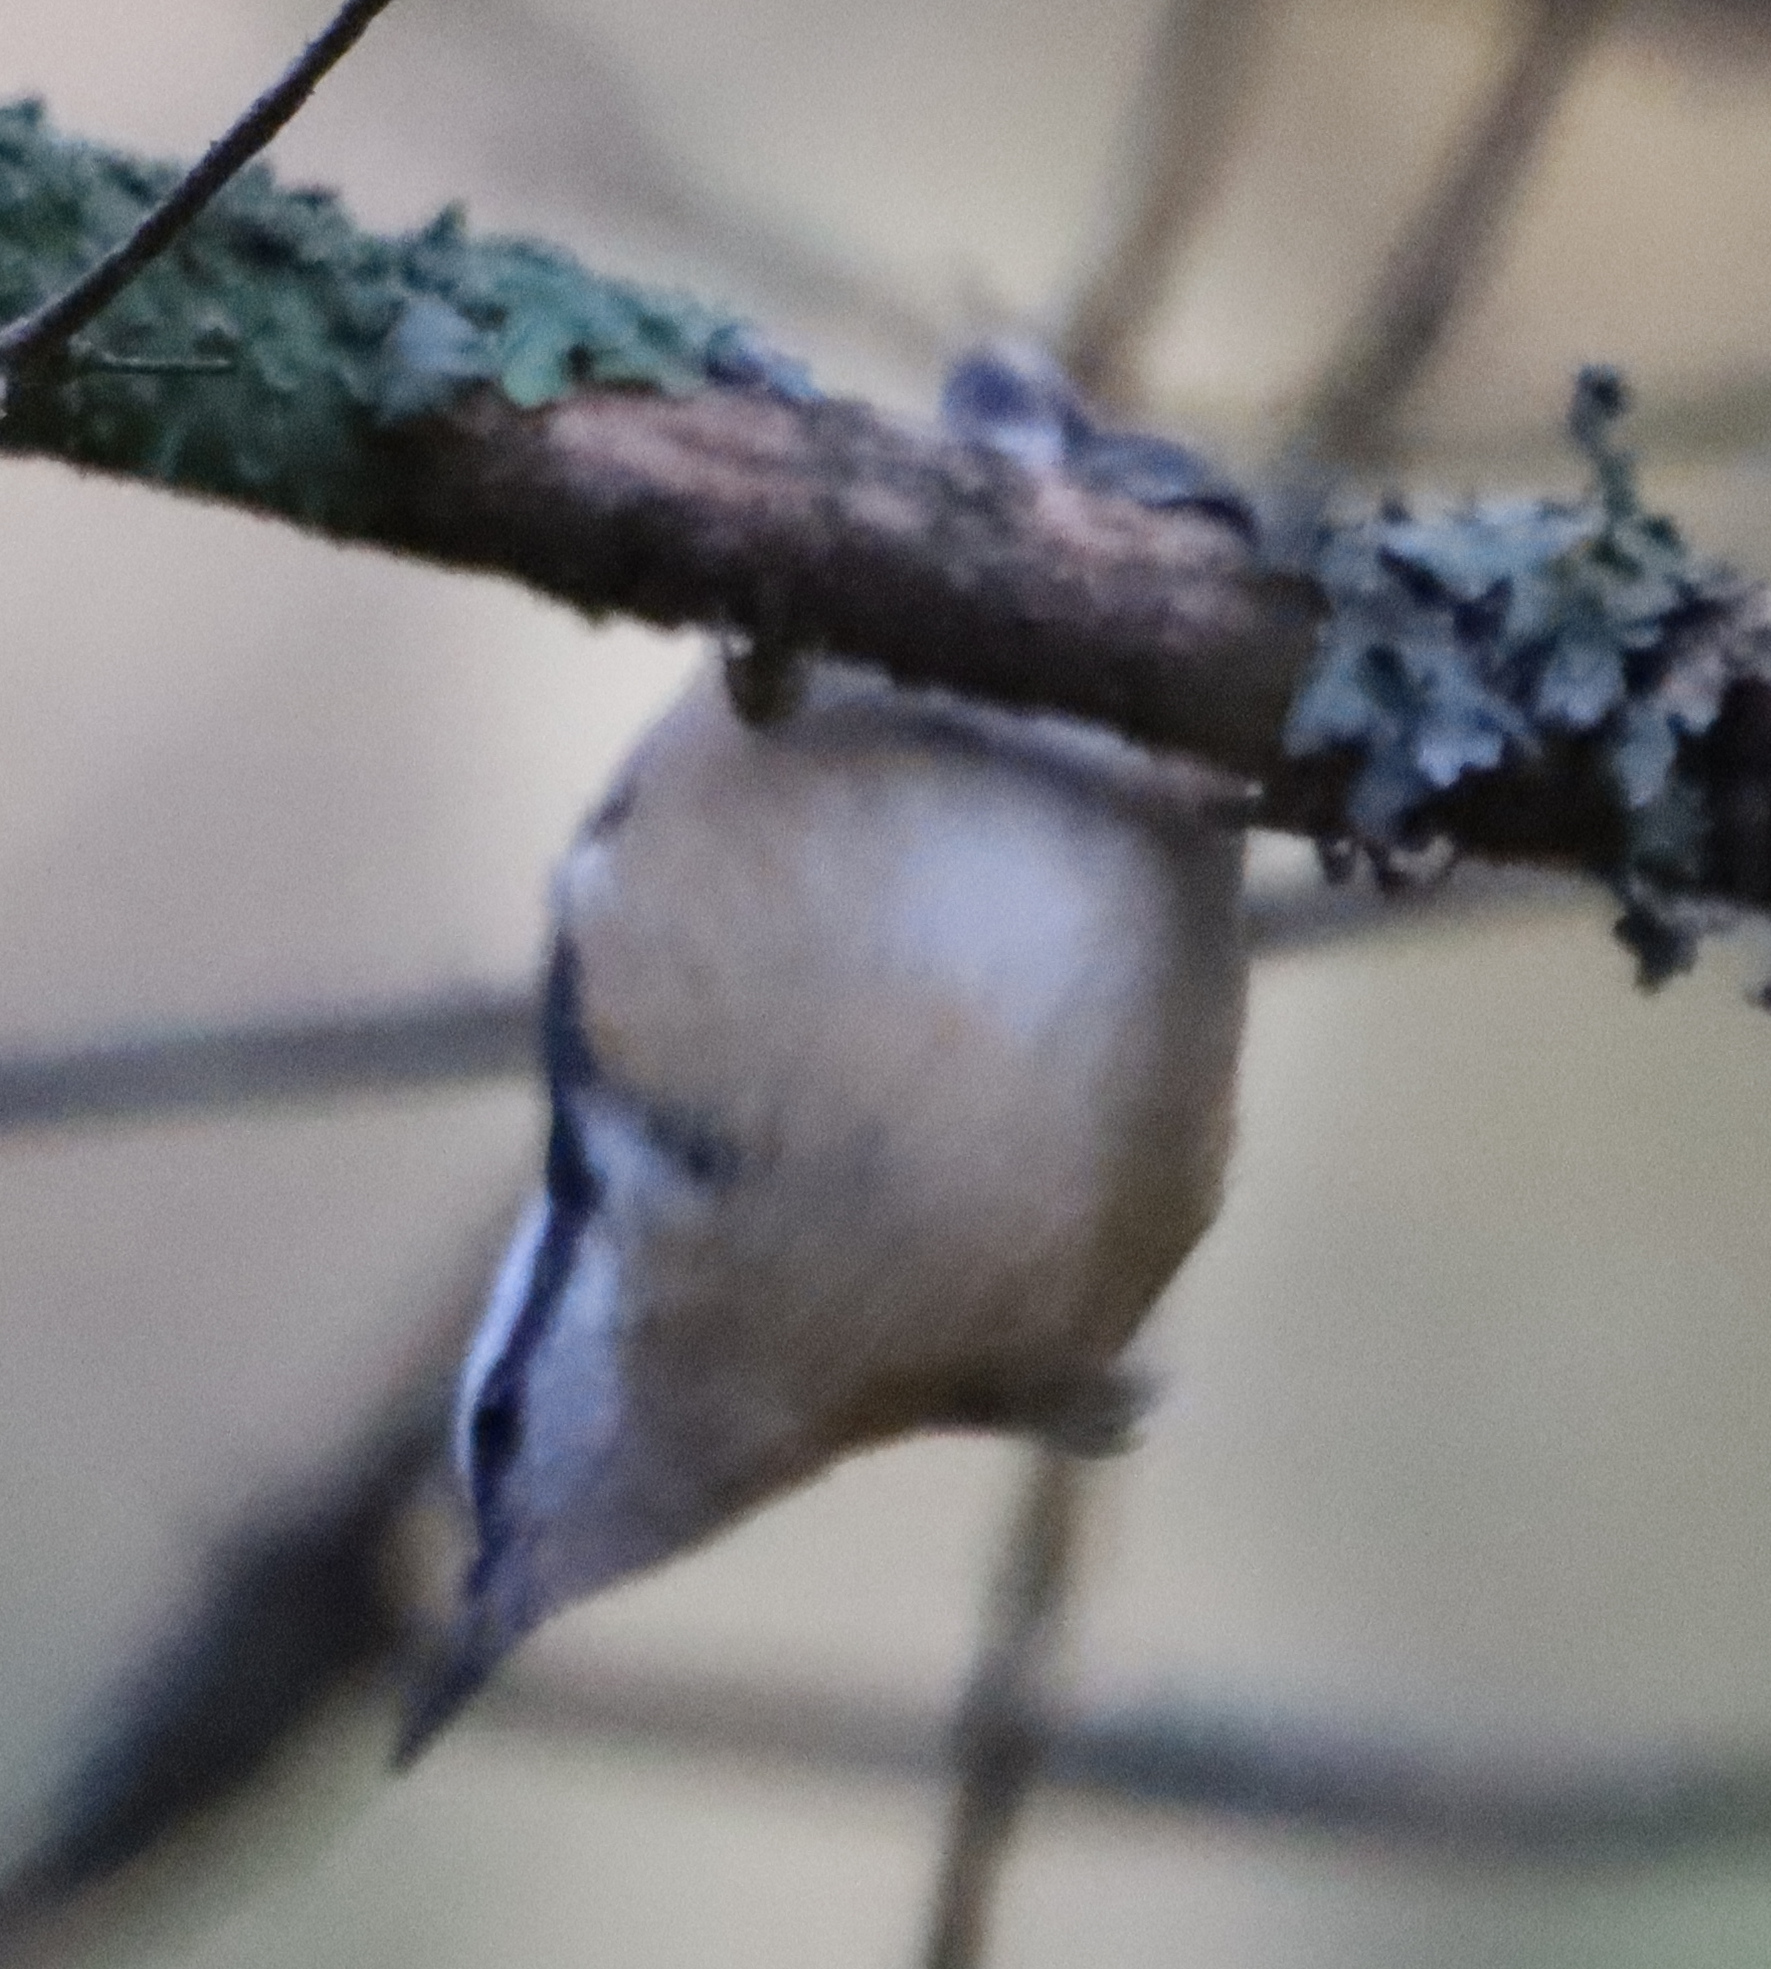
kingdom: Animalia
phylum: Chordata
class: Aves
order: Passeriformes
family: Sittidae
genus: Sitta
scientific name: Sitta canadensis
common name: Red-breasted nuthatch
